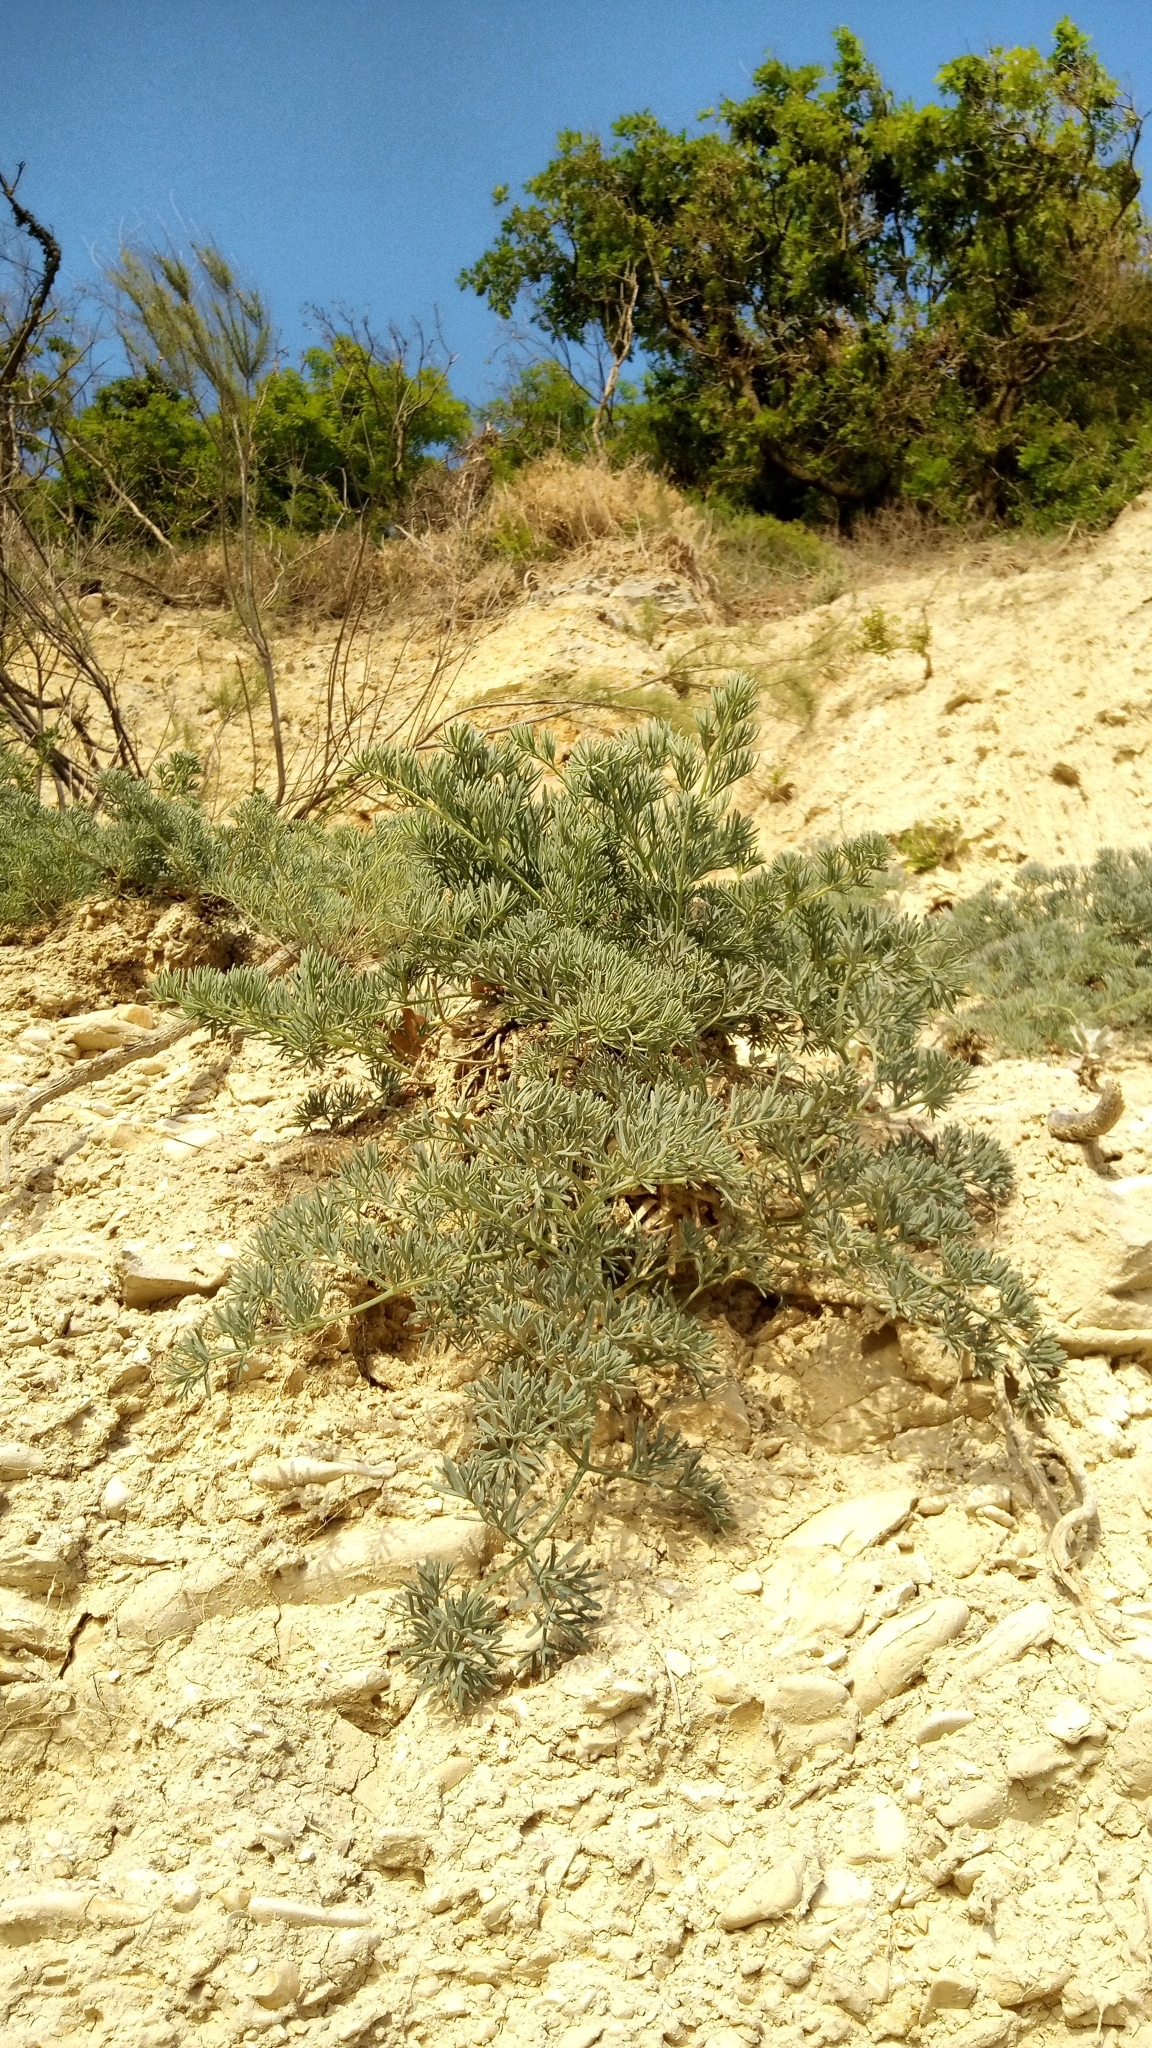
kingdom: Plantae
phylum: Tracheophyta
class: Magnoliopsida
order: Apiales
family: Apiaceae
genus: Seseli
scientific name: Seseli ponticum
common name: Pontic seseli
